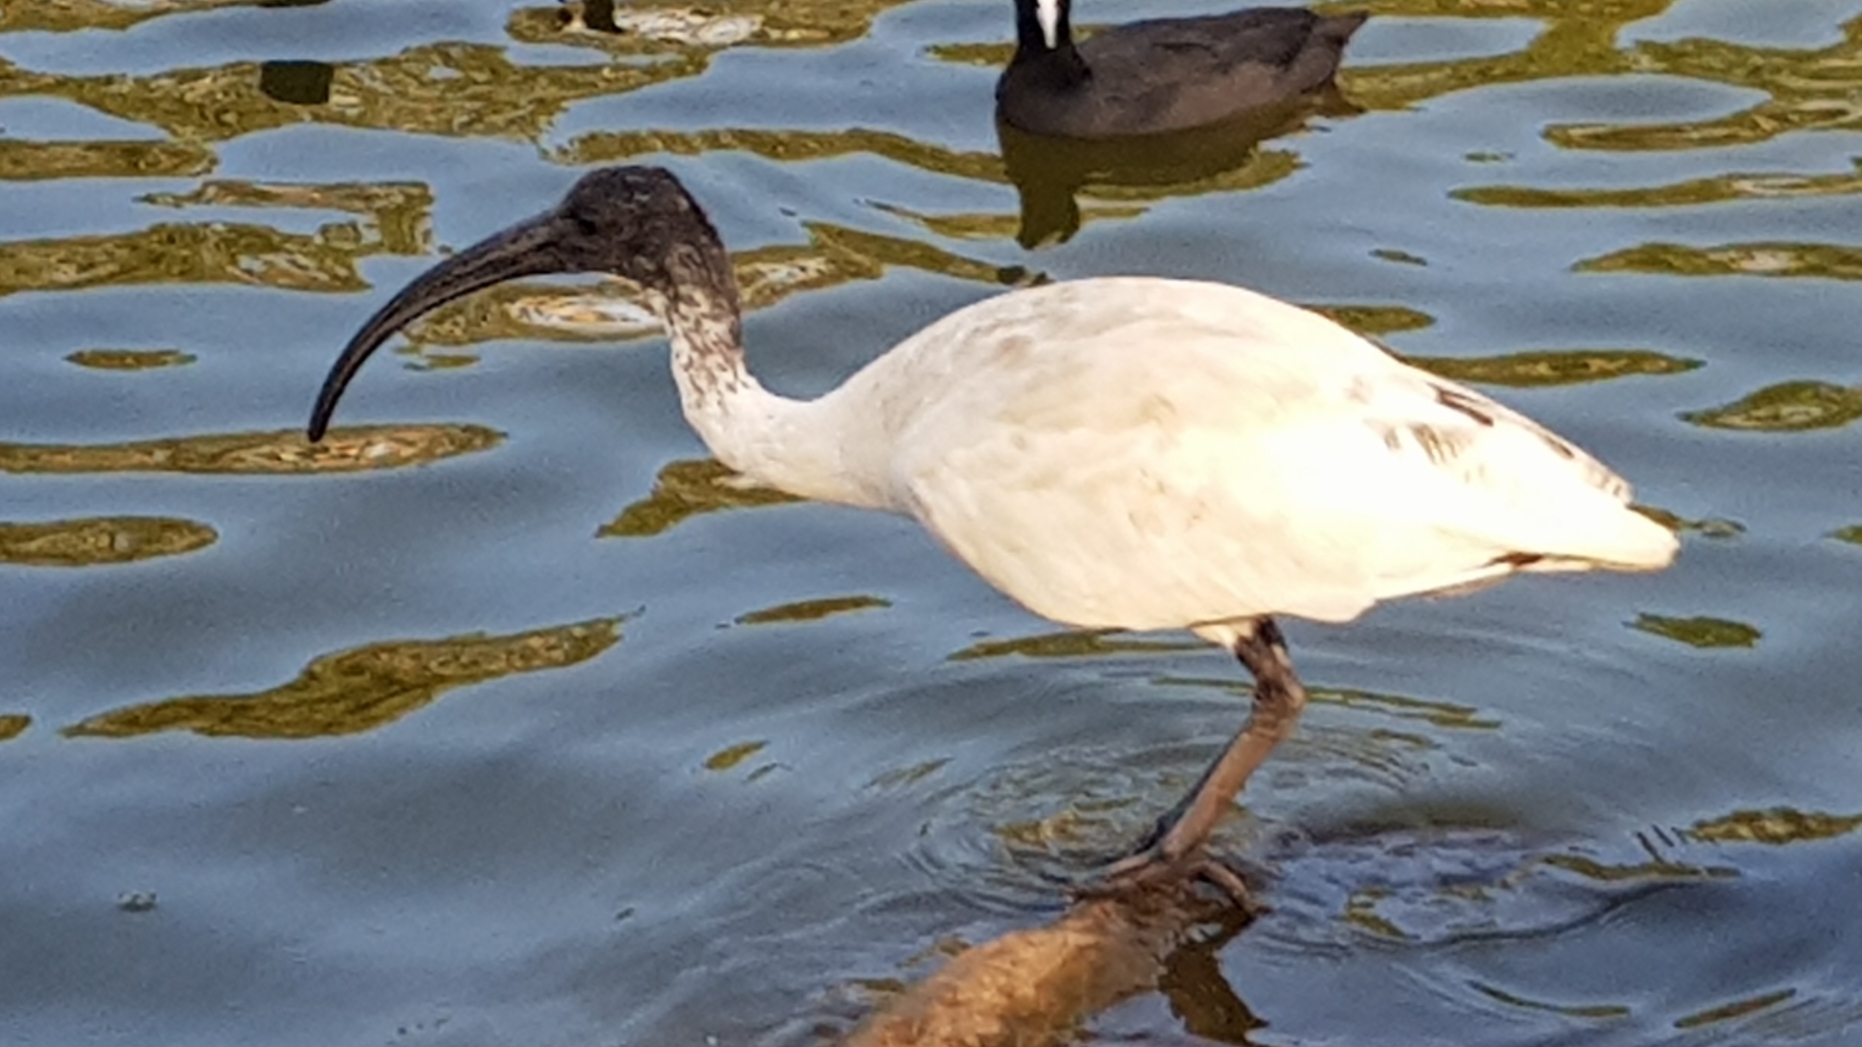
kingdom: Animalia
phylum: Chordata
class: Aves
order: Pelecaniformes
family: Threskiornithidae
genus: Threskiornis
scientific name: Threskiornis molucca
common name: Australian white ibis
